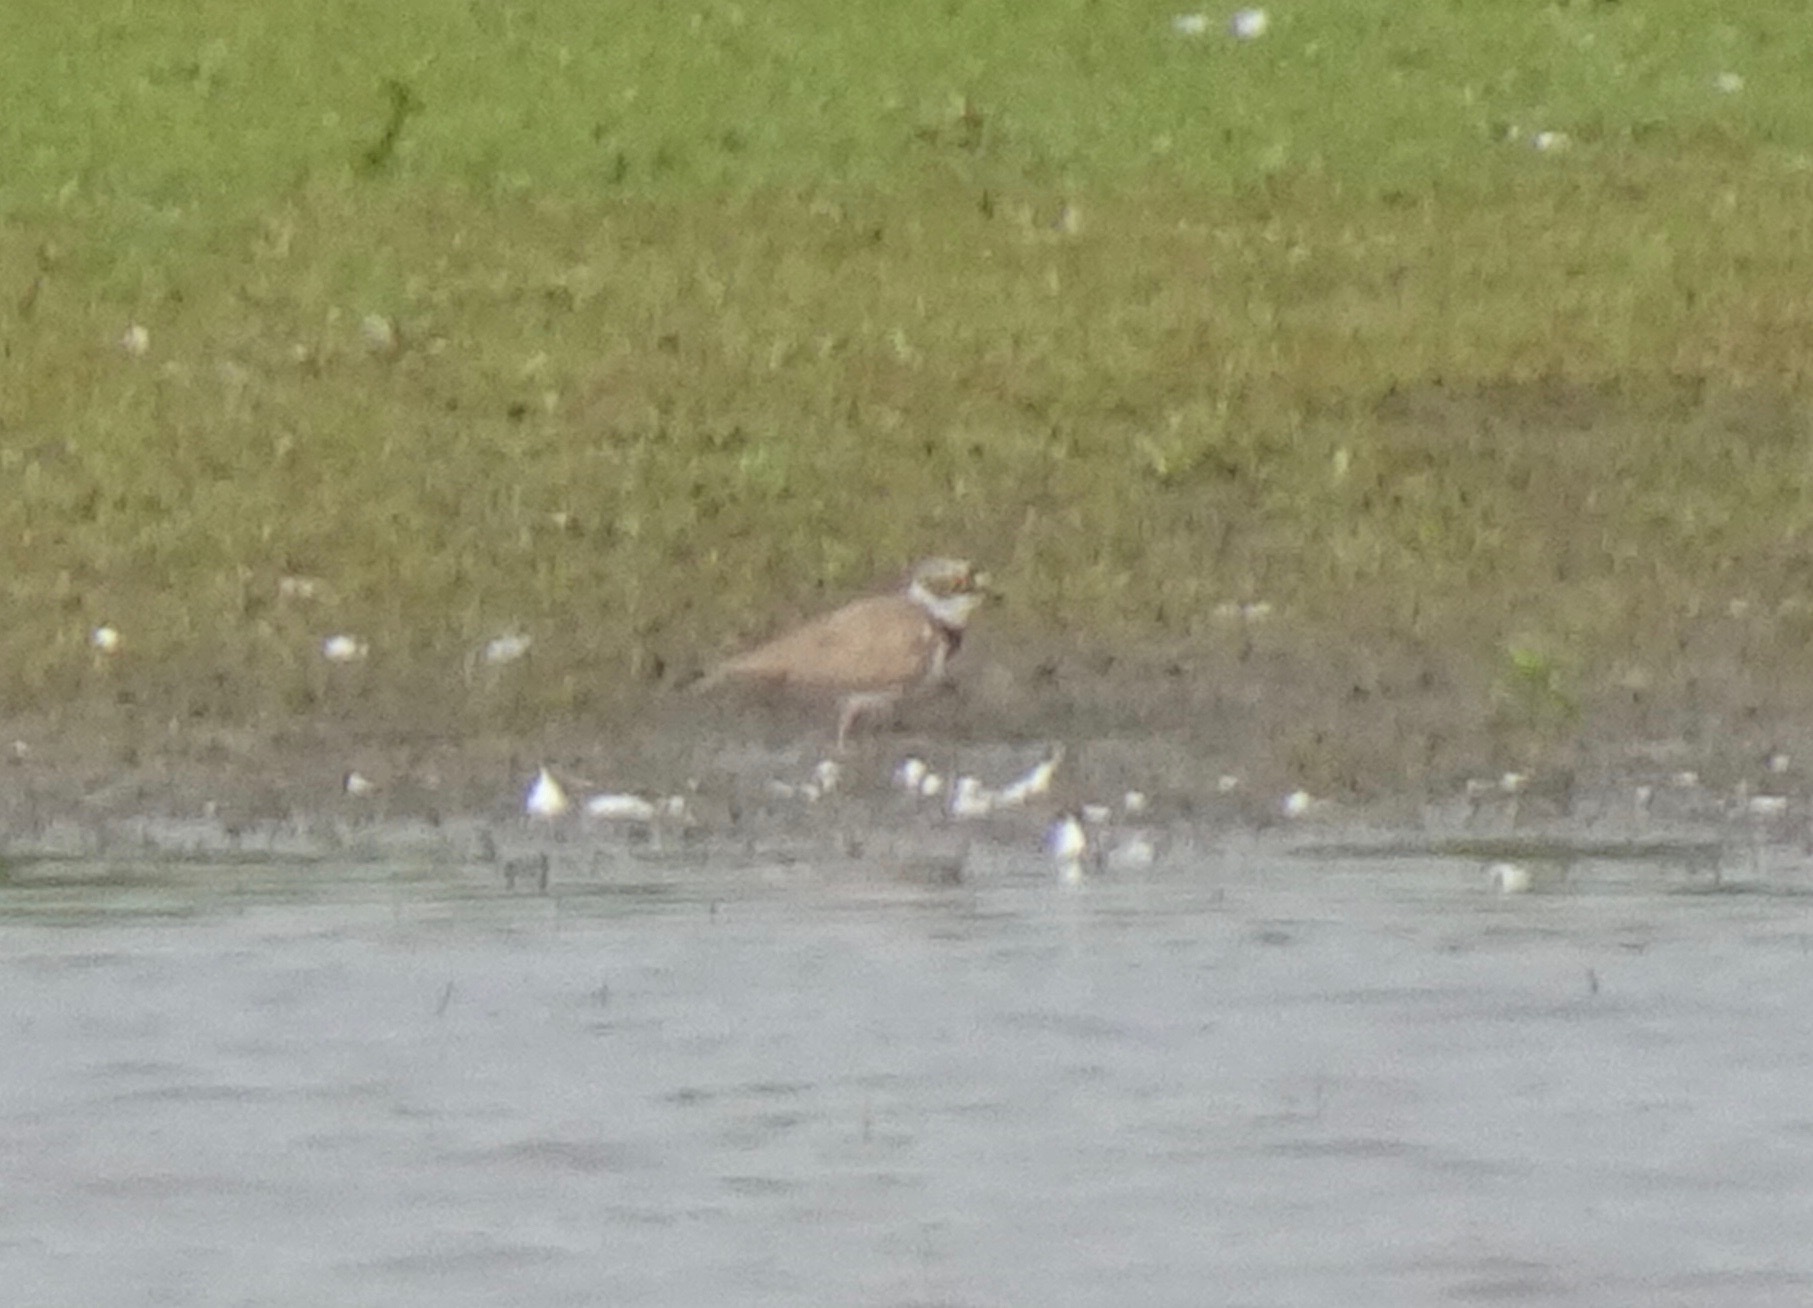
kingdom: Animalia
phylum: Chordata
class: Aves
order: Charadriiformes
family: Charadriidae
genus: Charadrius
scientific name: Charadrius dubius
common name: Little ringed plover
